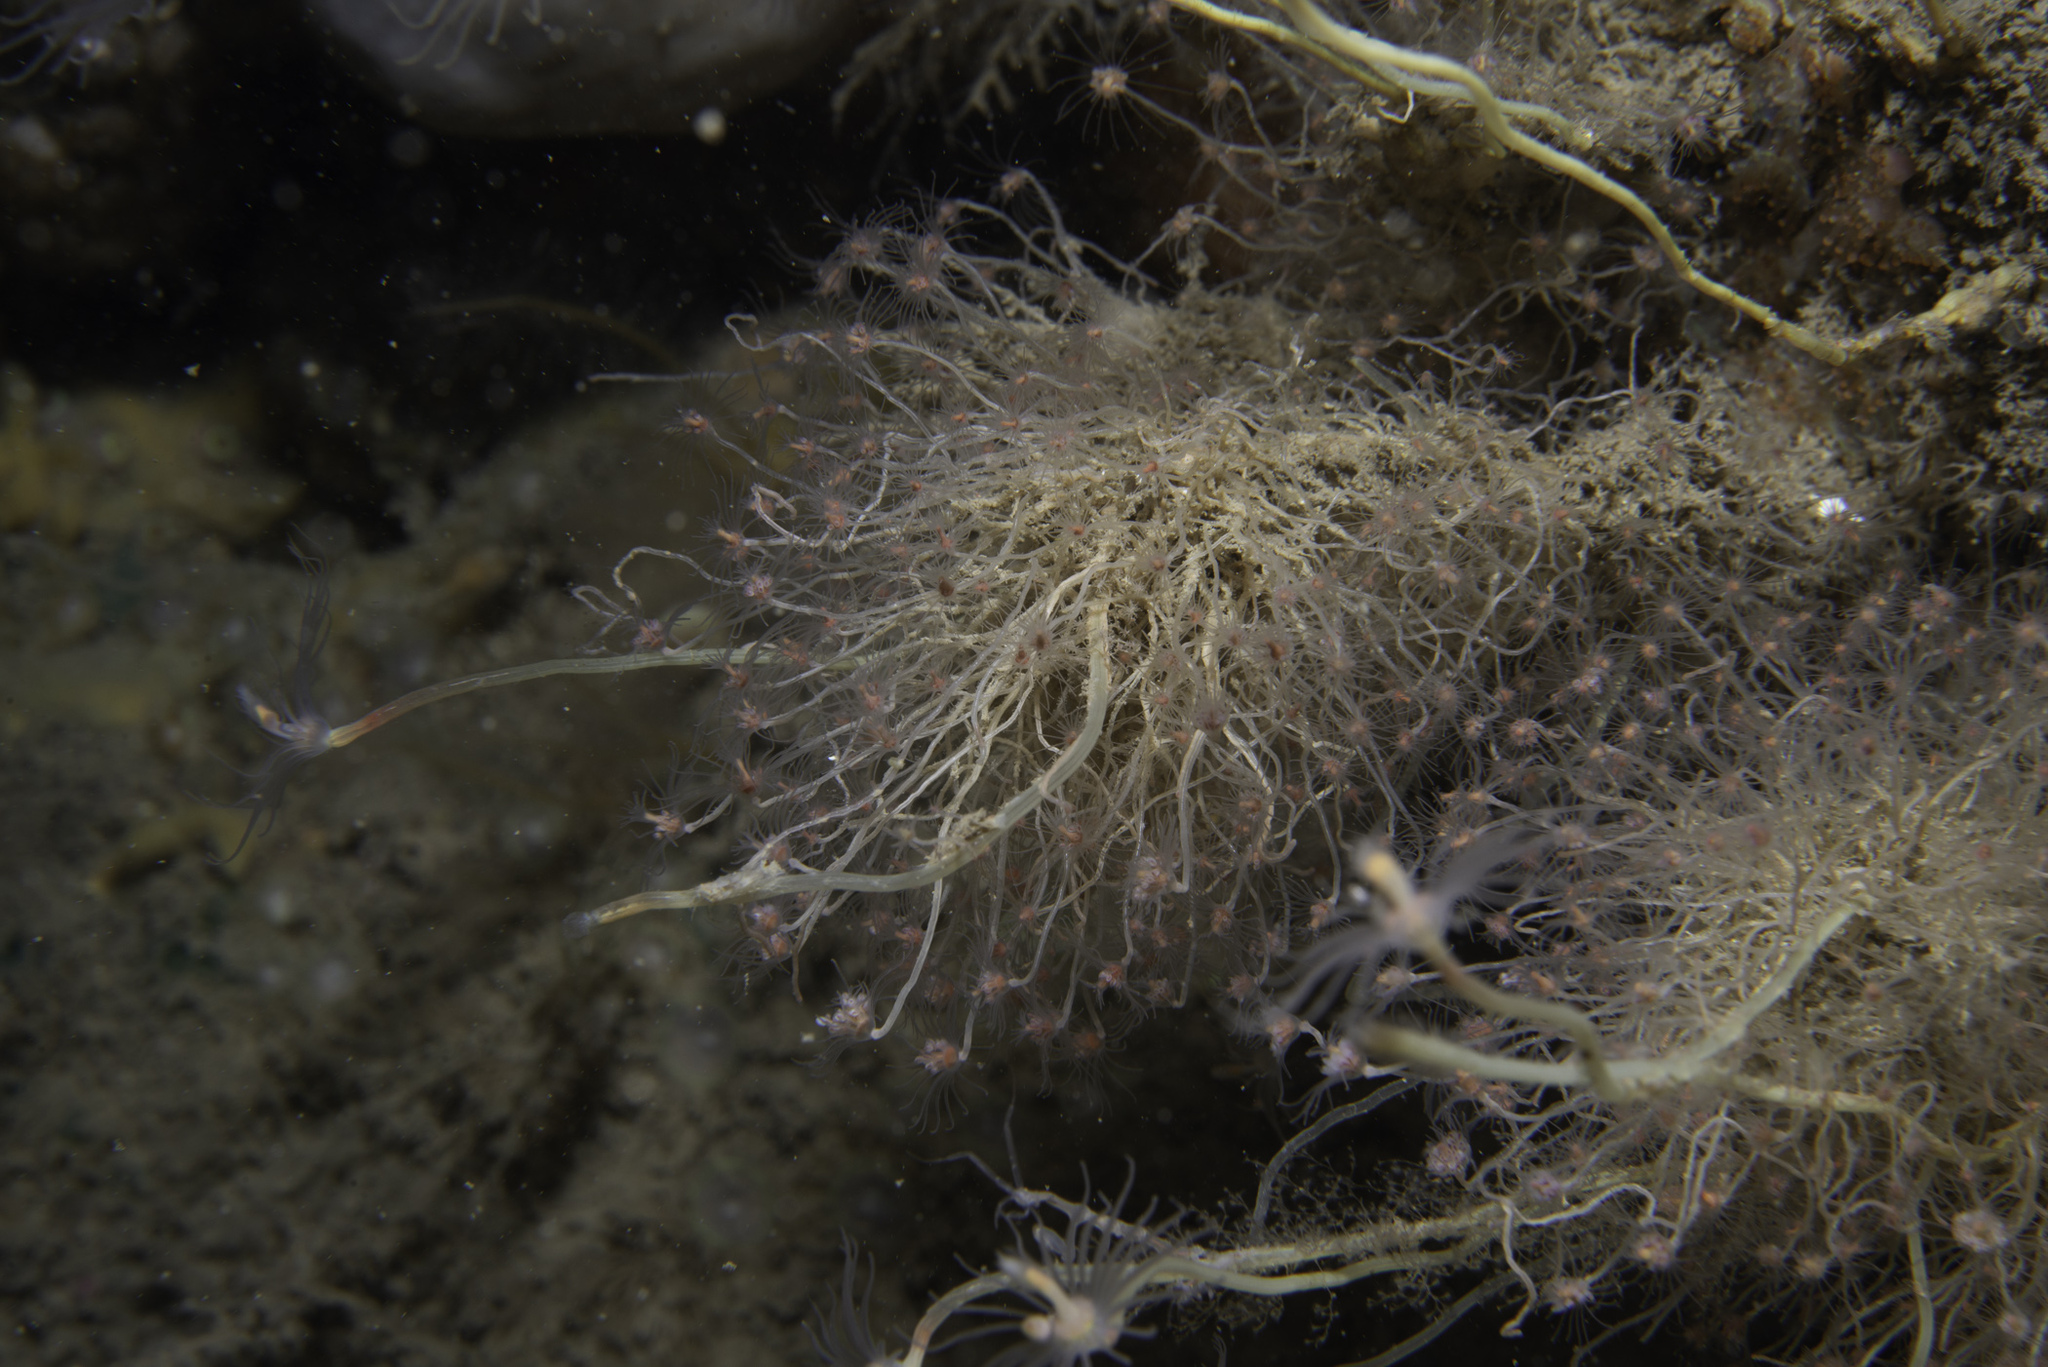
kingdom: Animalia
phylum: Cnidaria
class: Hydrozoa
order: Anthoathecata
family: Tubulariidae
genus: Tubularia
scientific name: Tubularia indivisa
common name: Oaten pipes hydroid
